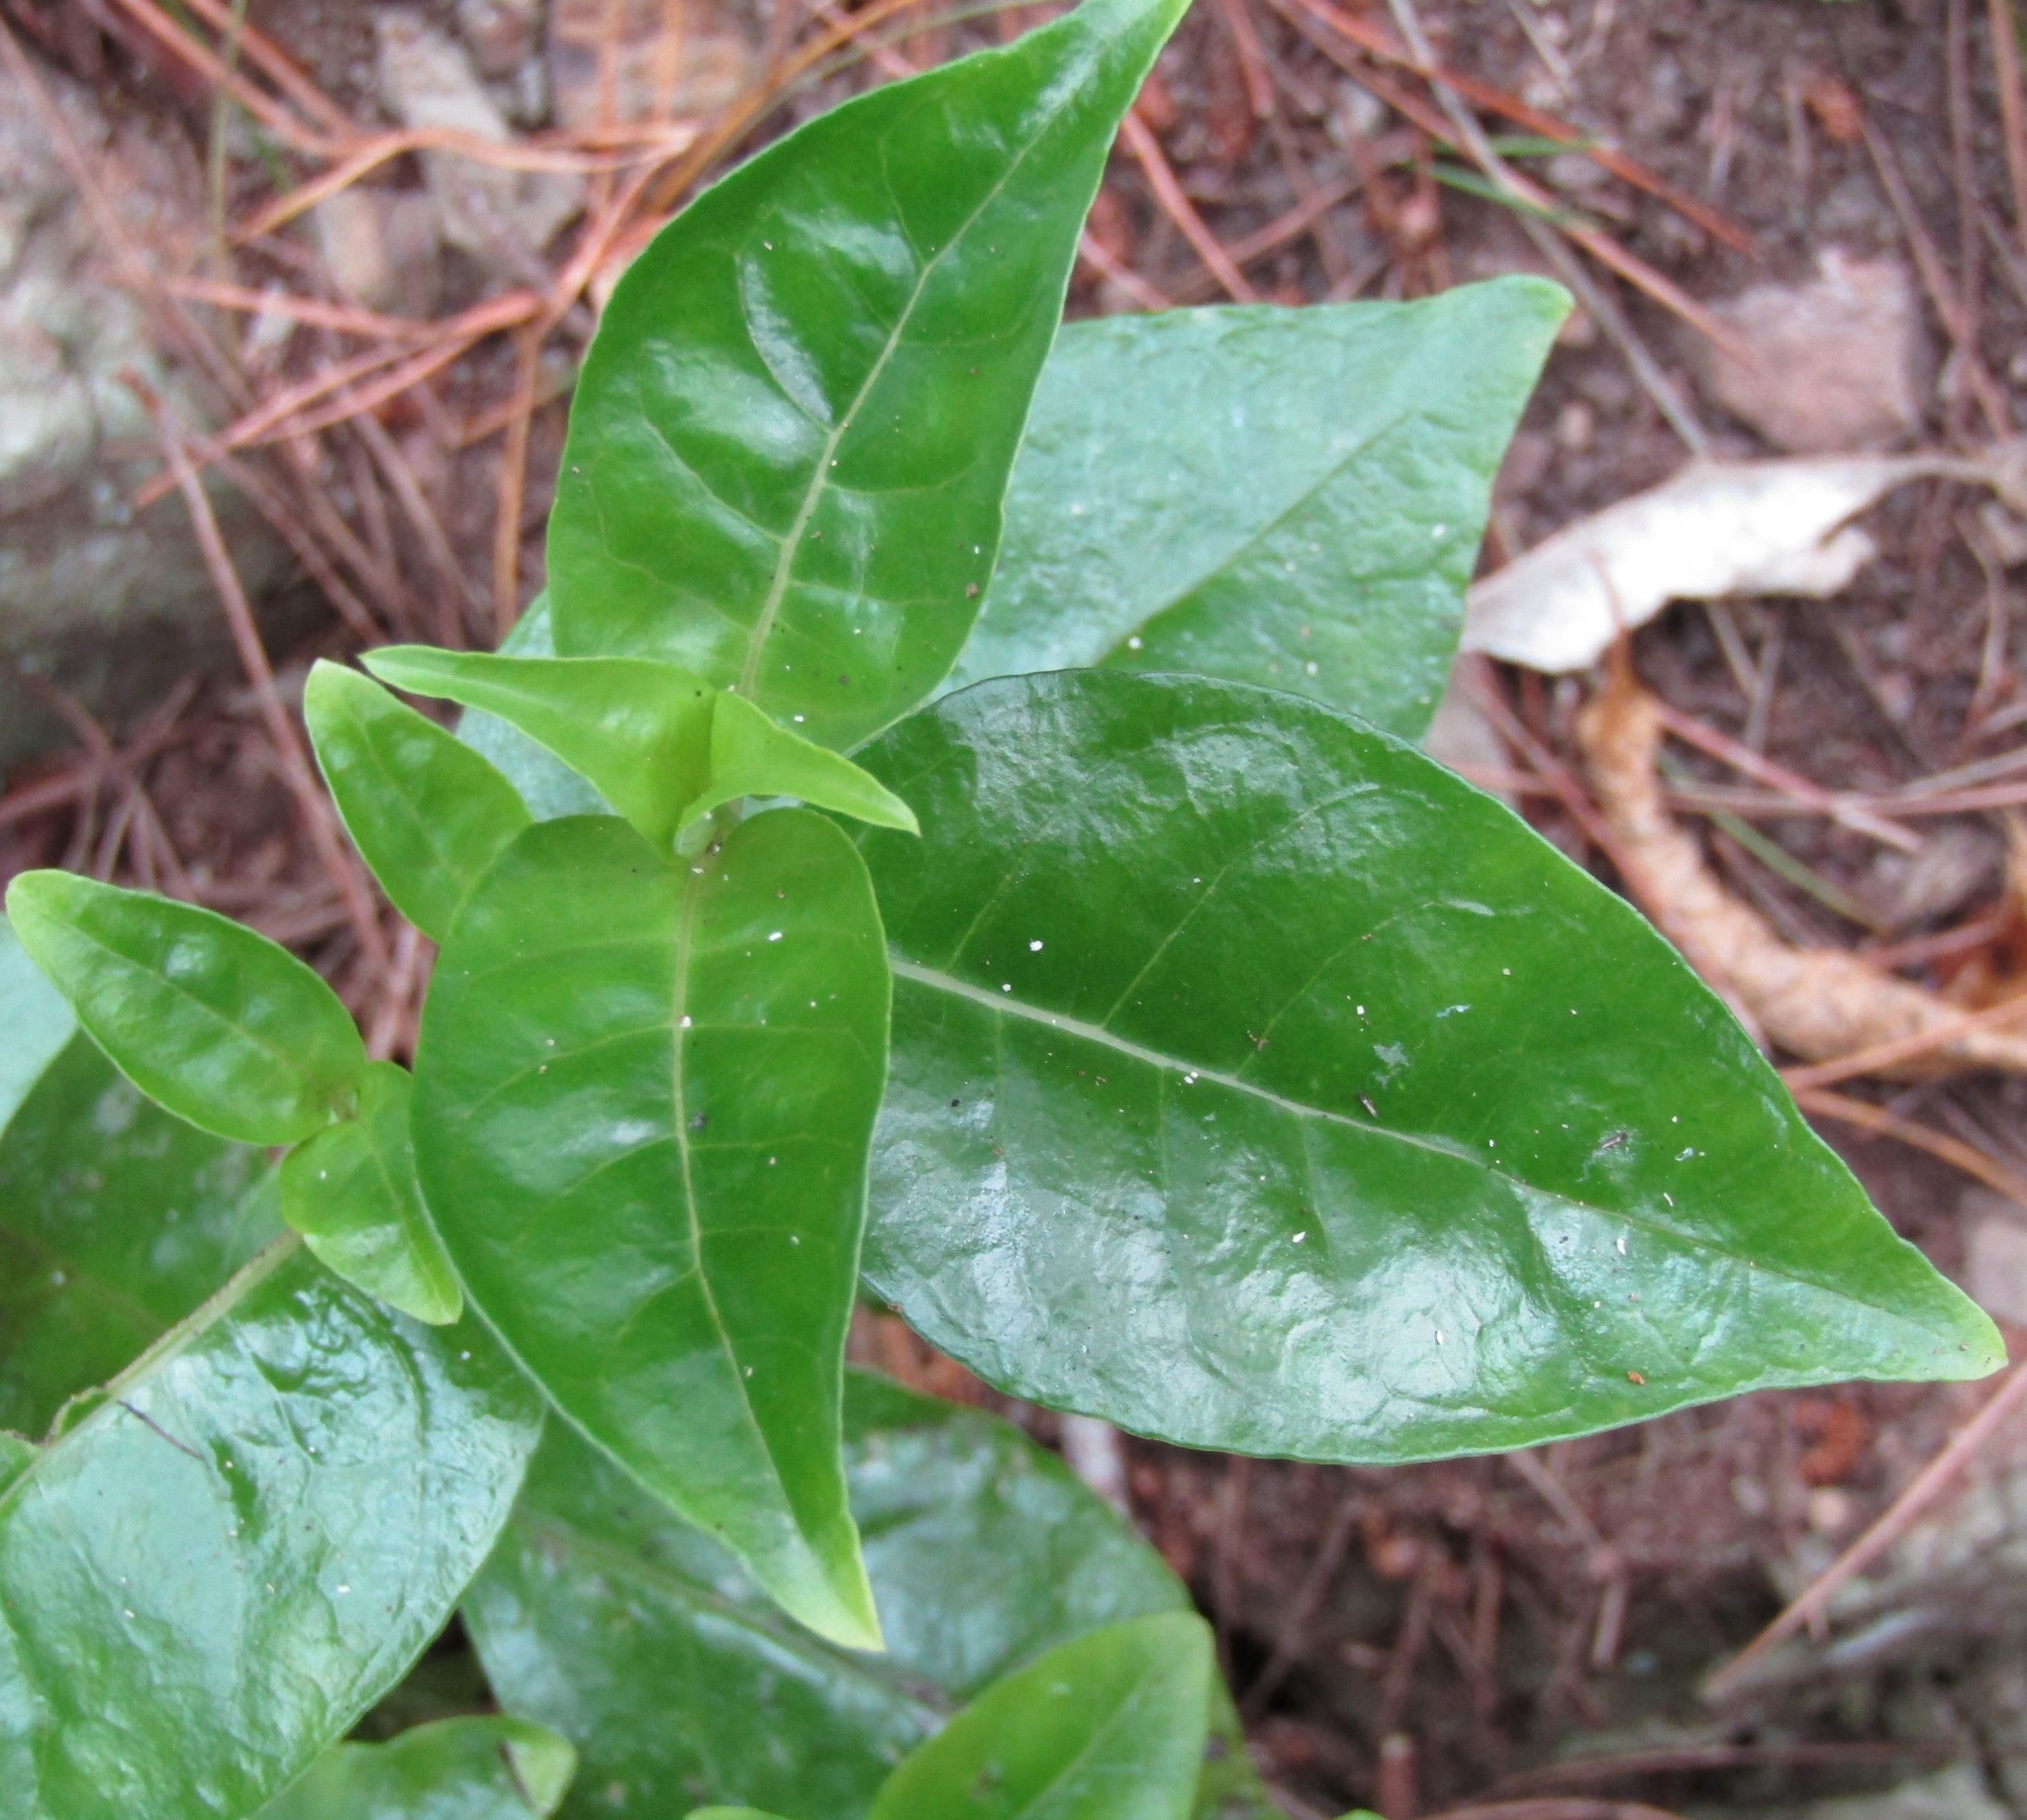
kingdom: Plantae
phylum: Tracheophyta
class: Magnoliopsida
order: Gentianales
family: Loganiaceae
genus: Geniostoma
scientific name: Geniostoma ligustrifolium
